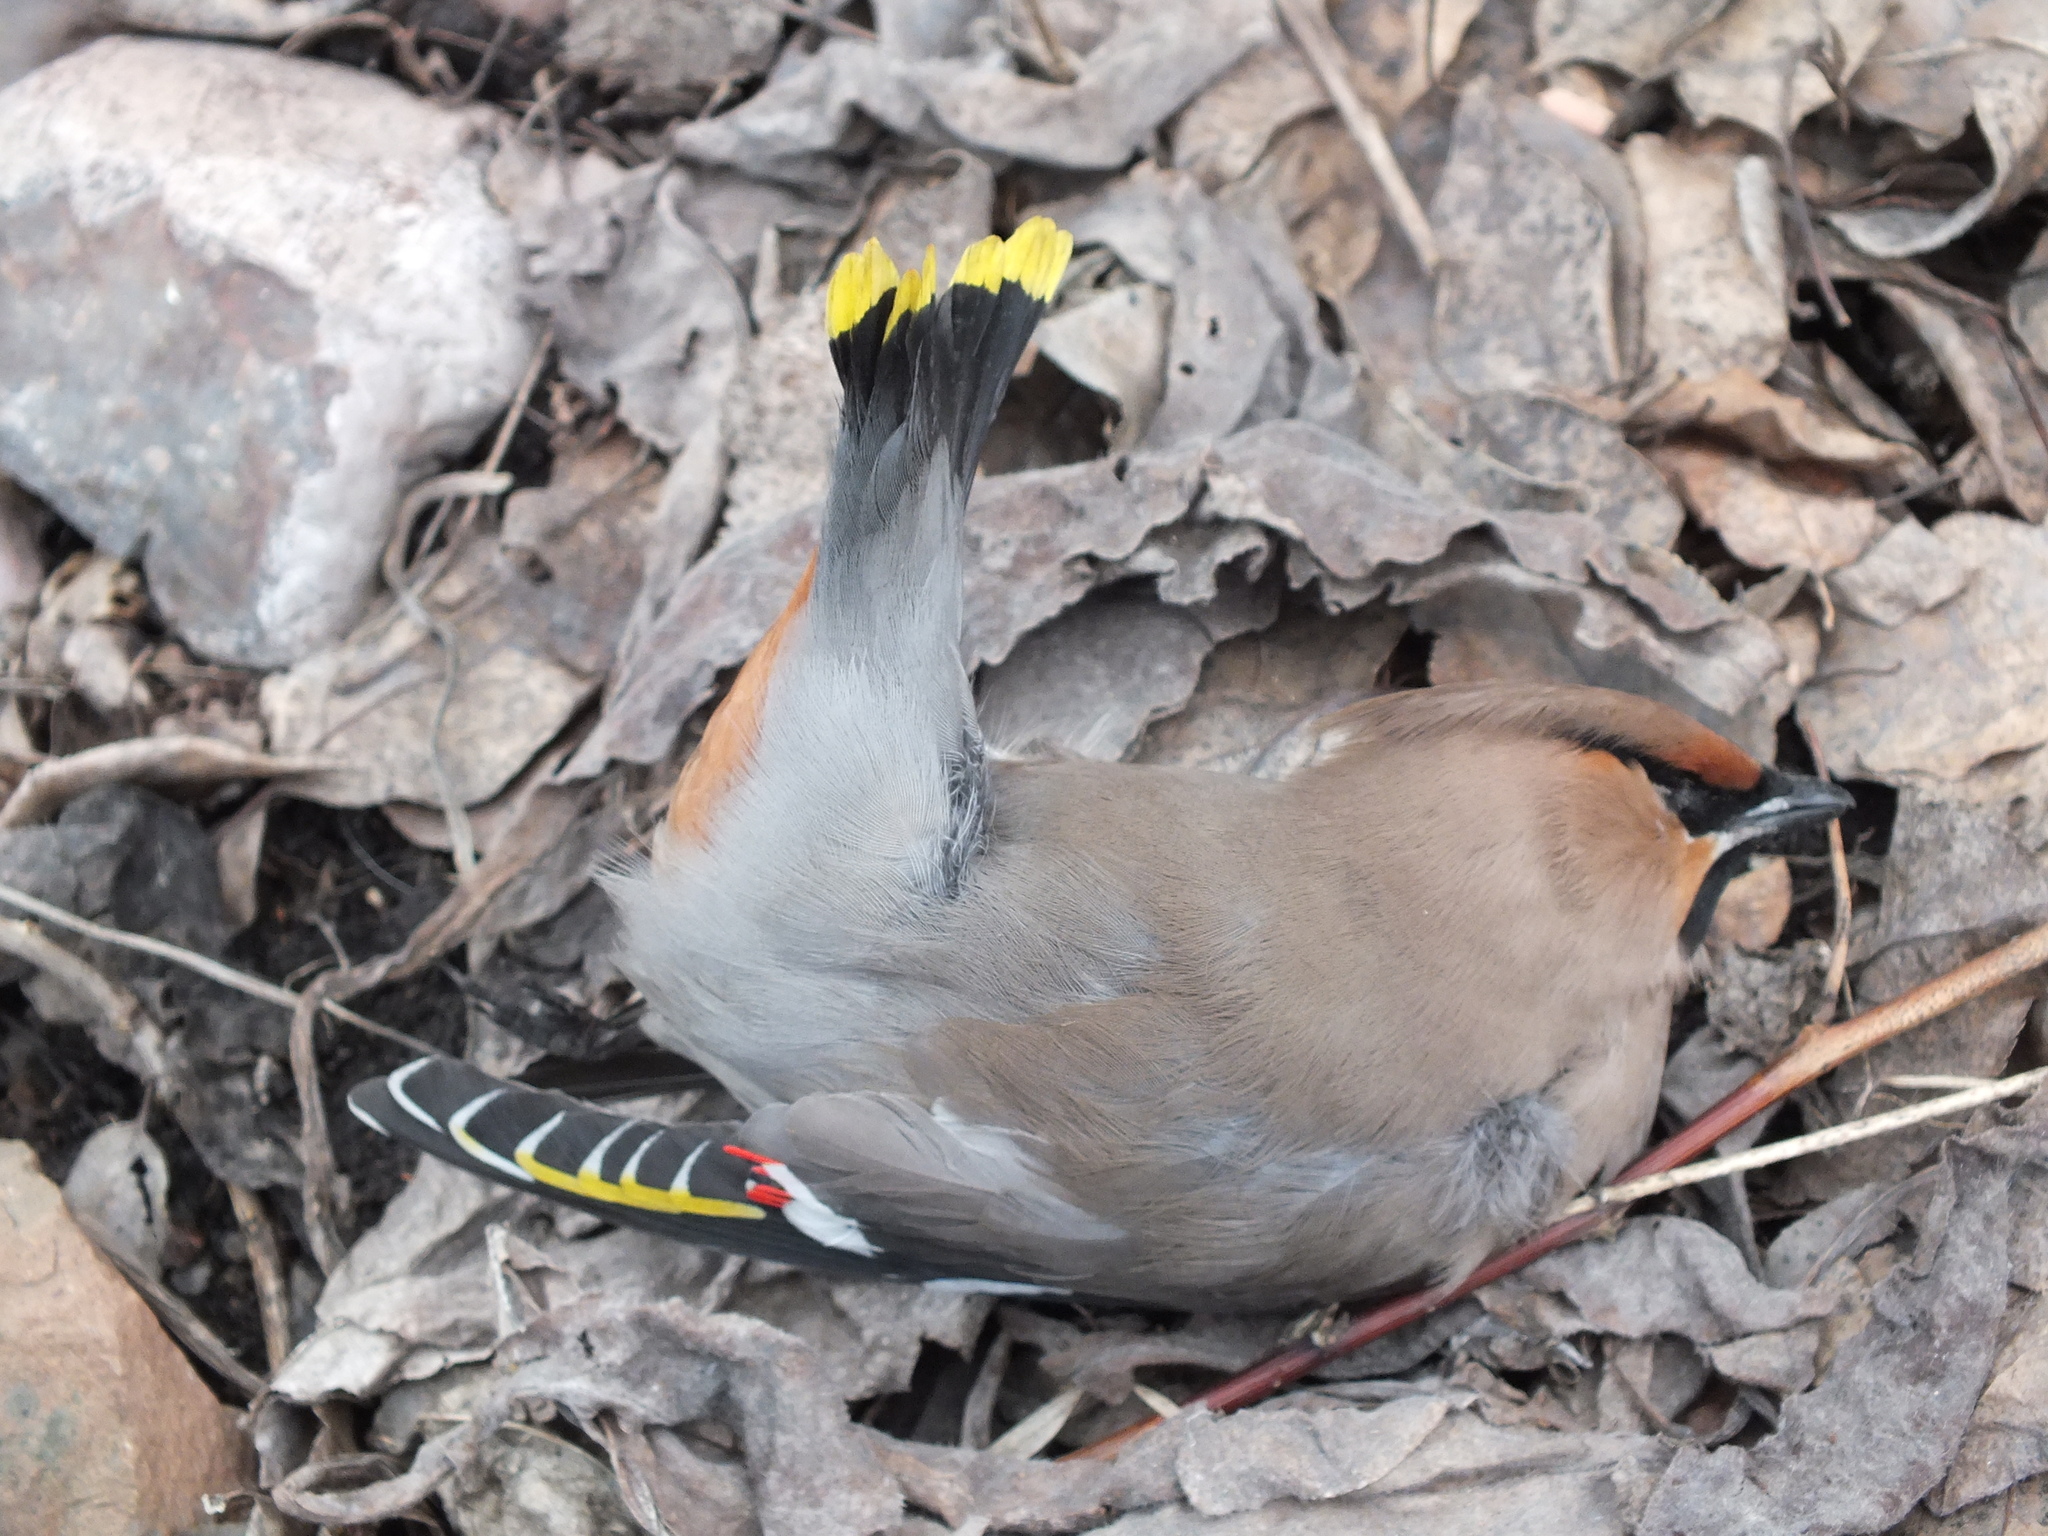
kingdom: Animalia
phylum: Chordata
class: Aves
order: Passeriformes
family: Bombycillidae
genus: Bombycilla
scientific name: Bombycilla garrulus
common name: Bohemian waxwing
